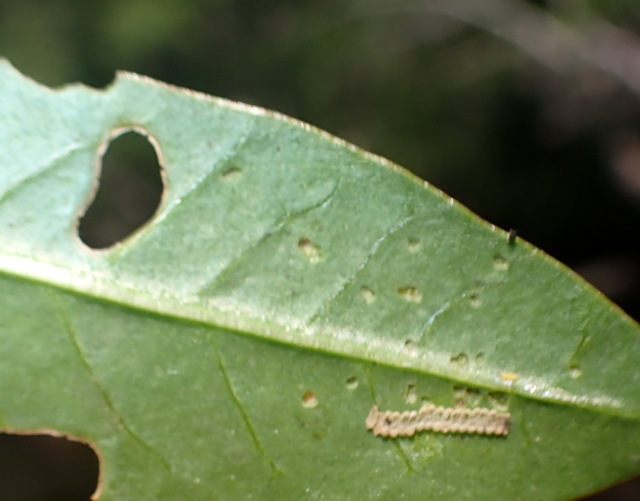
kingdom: Animalia
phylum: Arthropoda
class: Insecta
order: Coleoptera
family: Chrysomelidae
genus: Agasicles
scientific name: Agasicles hygrophila
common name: Alligatorweed flea beetle
